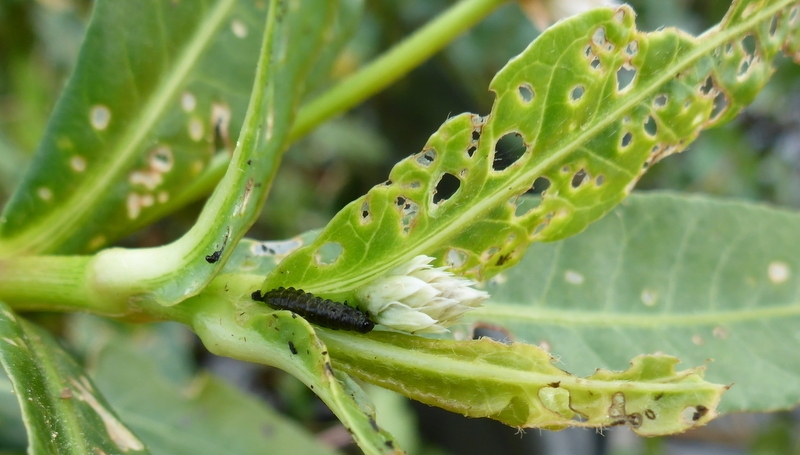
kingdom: Animalia
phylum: Arthropoda
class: Insecta
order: Coleoptera
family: Chrysomelidae
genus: Agasicles
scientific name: Agasicles hygrophila
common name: Alligatorweed flea beetle
